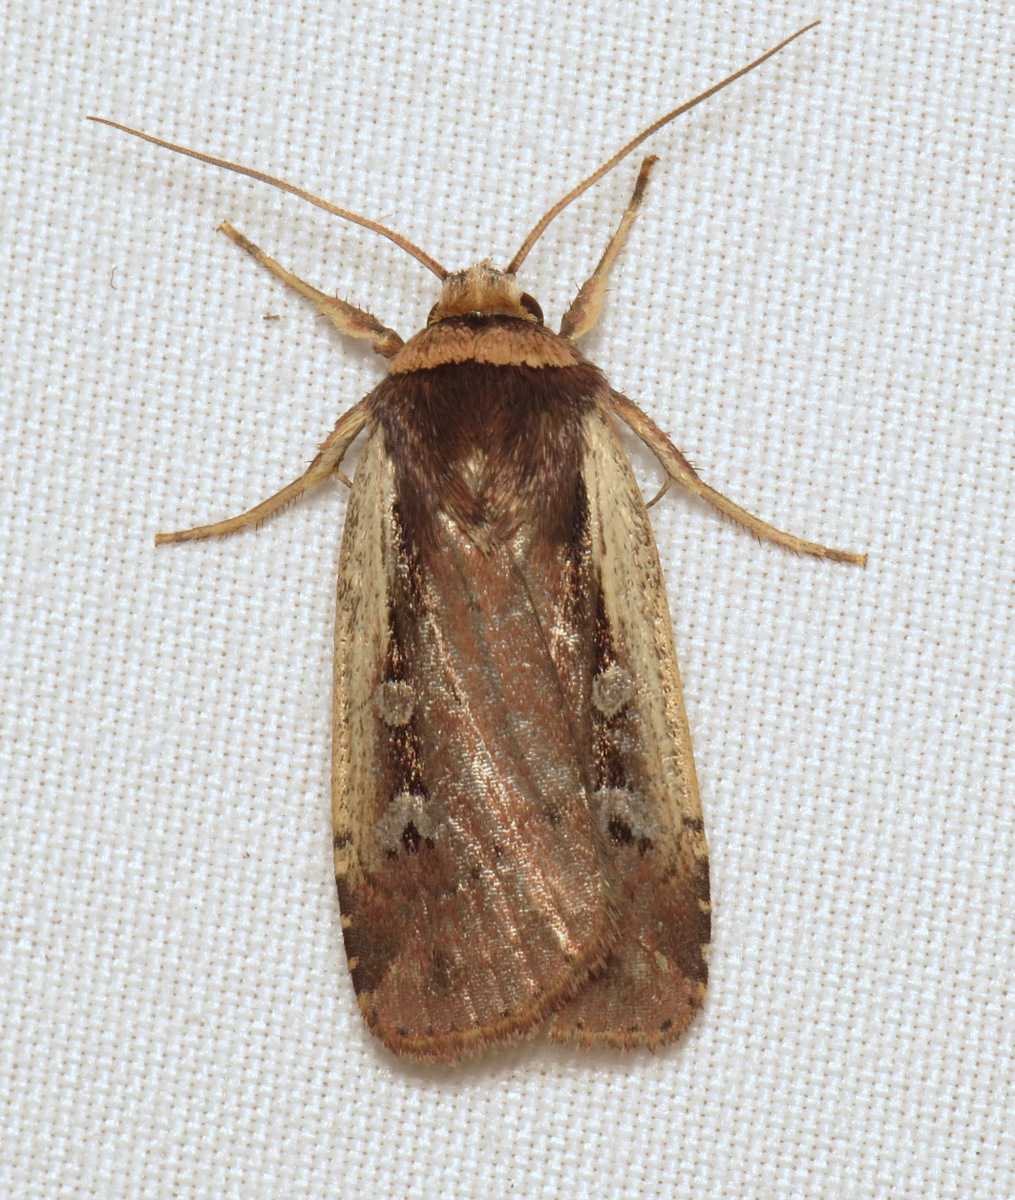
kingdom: Animalia
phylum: Arthropoda
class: Insecta
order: Lepidoptera
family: Noctuidae
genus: Ochropleura
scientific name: Ochropleura implecta
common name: Flame-shouldered dart
